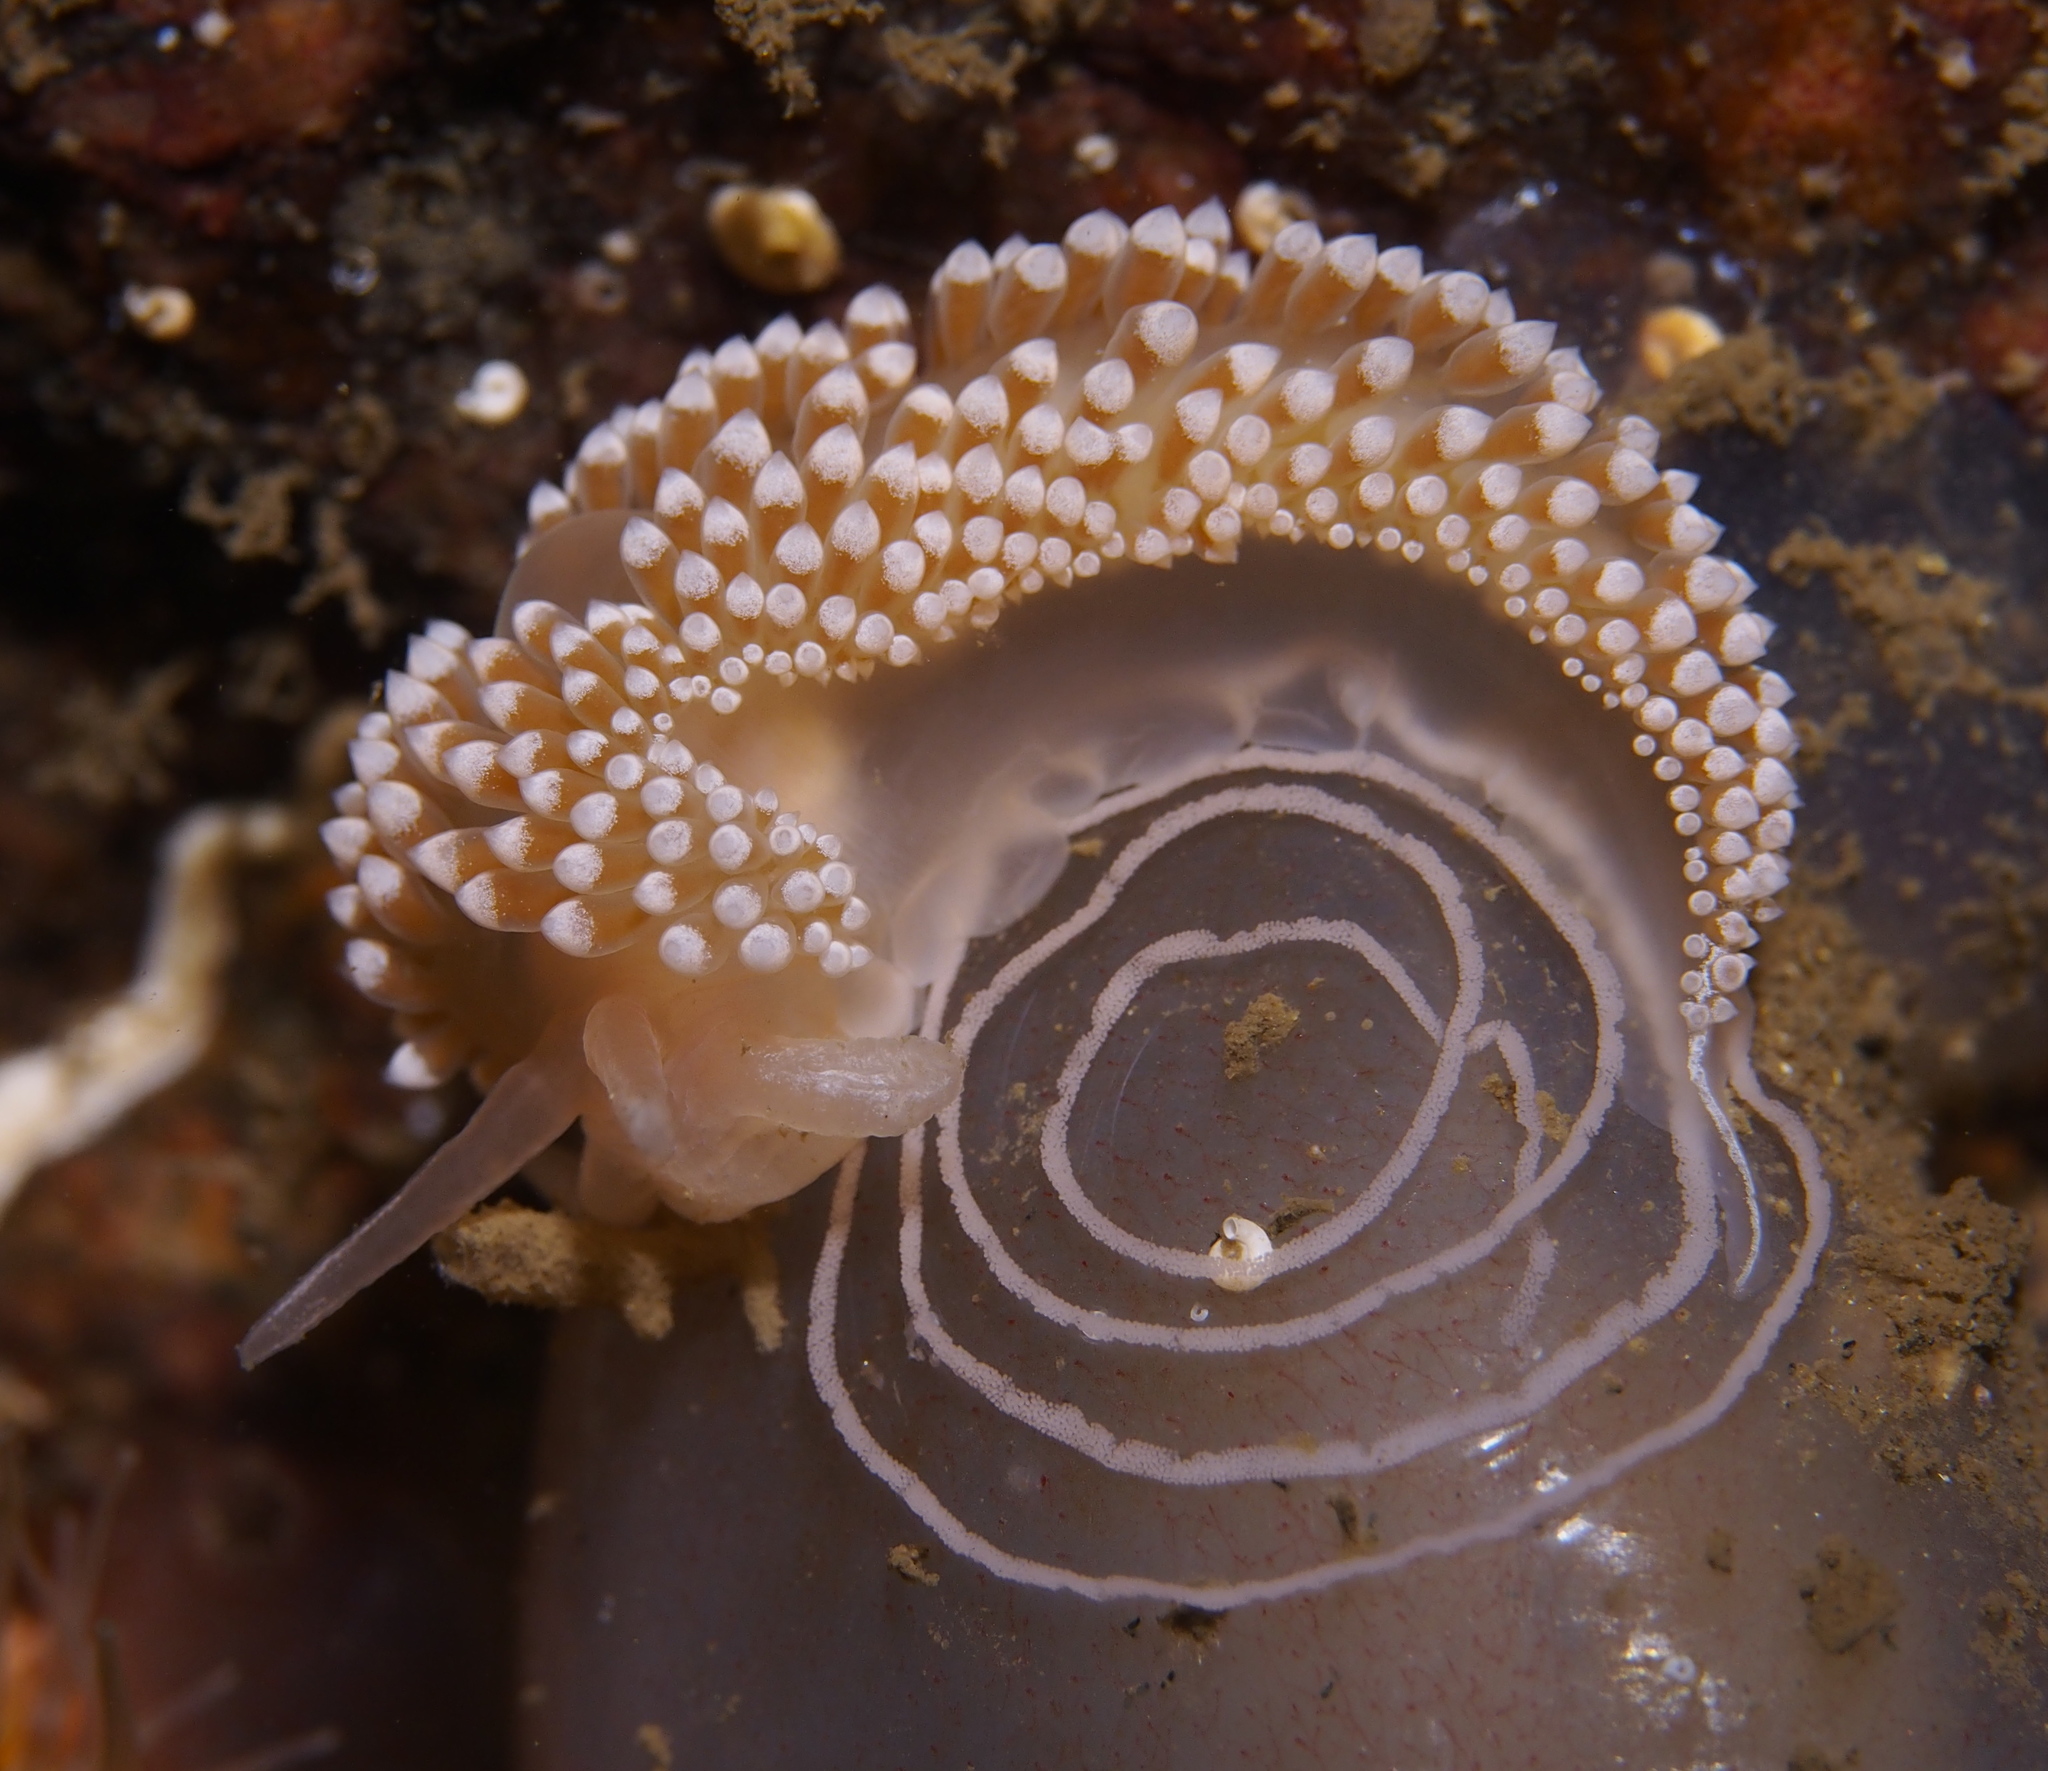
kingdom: Animalia
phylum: Mollusca
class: Gastropoda
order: Nudibranchia
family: Coryphellidae
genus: Coryphella
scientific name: Coryphella verrucosa
